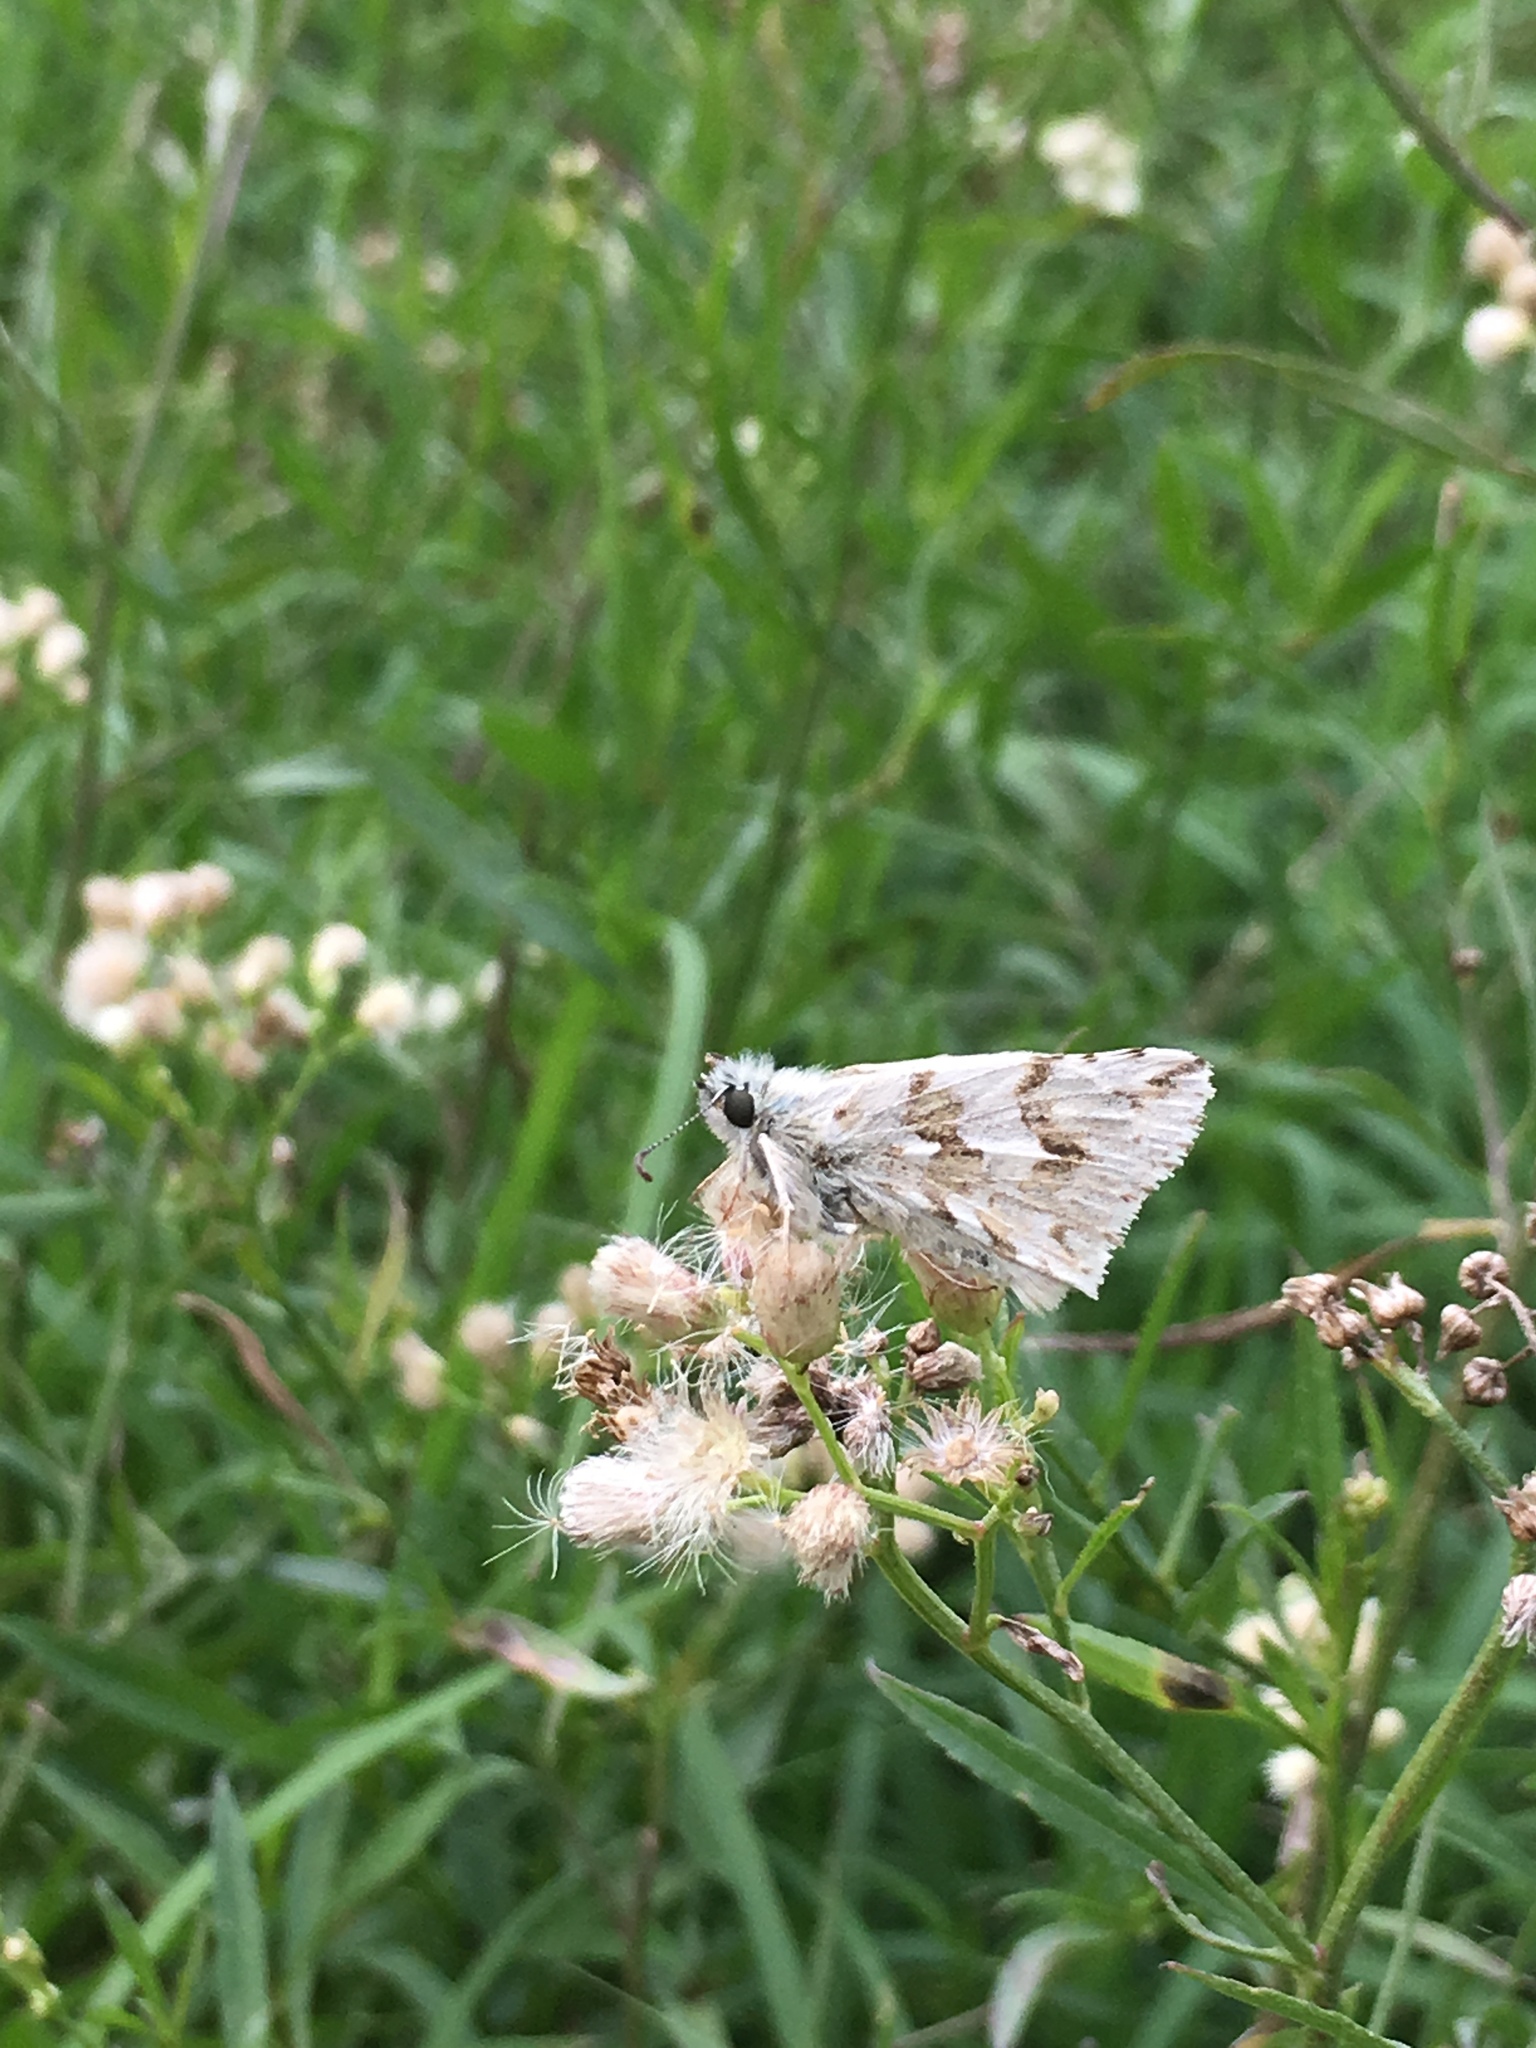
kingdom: Animalia
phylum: Arthropoda
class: Insecta
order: Lepidoptera
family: Hesperiidae
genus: Heliopetes
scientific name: Heliopetes americanus
